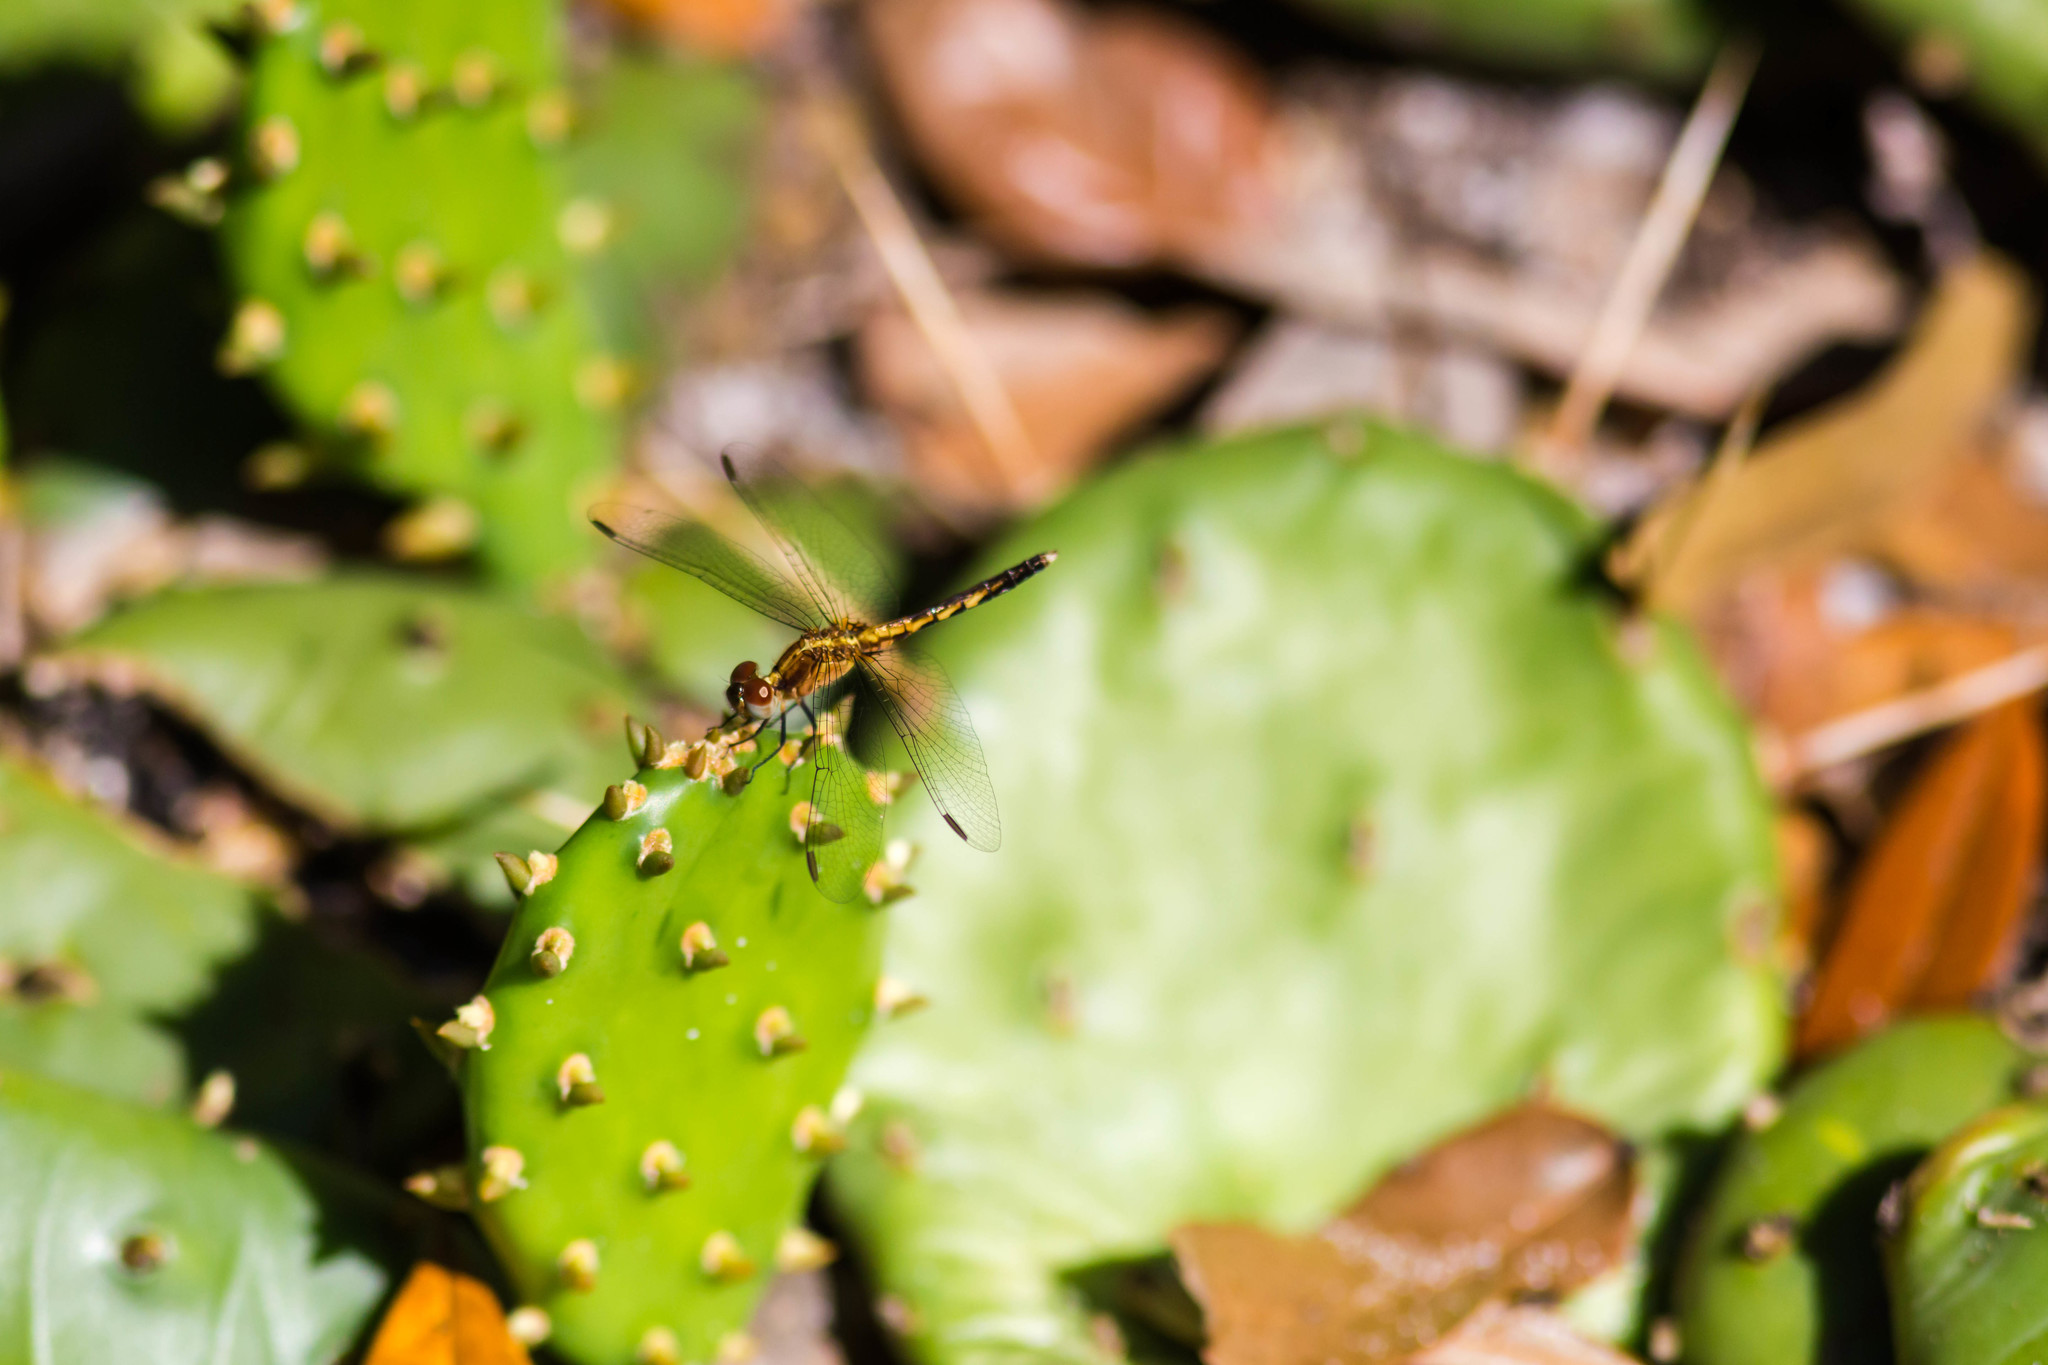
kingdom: Animalia
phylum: Arthropoda
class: Insecta
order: Odonata
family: Libellulidae
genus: Erythrodiplax
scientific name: Erythrodiplax minuscula
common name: Little blue dragonlet
